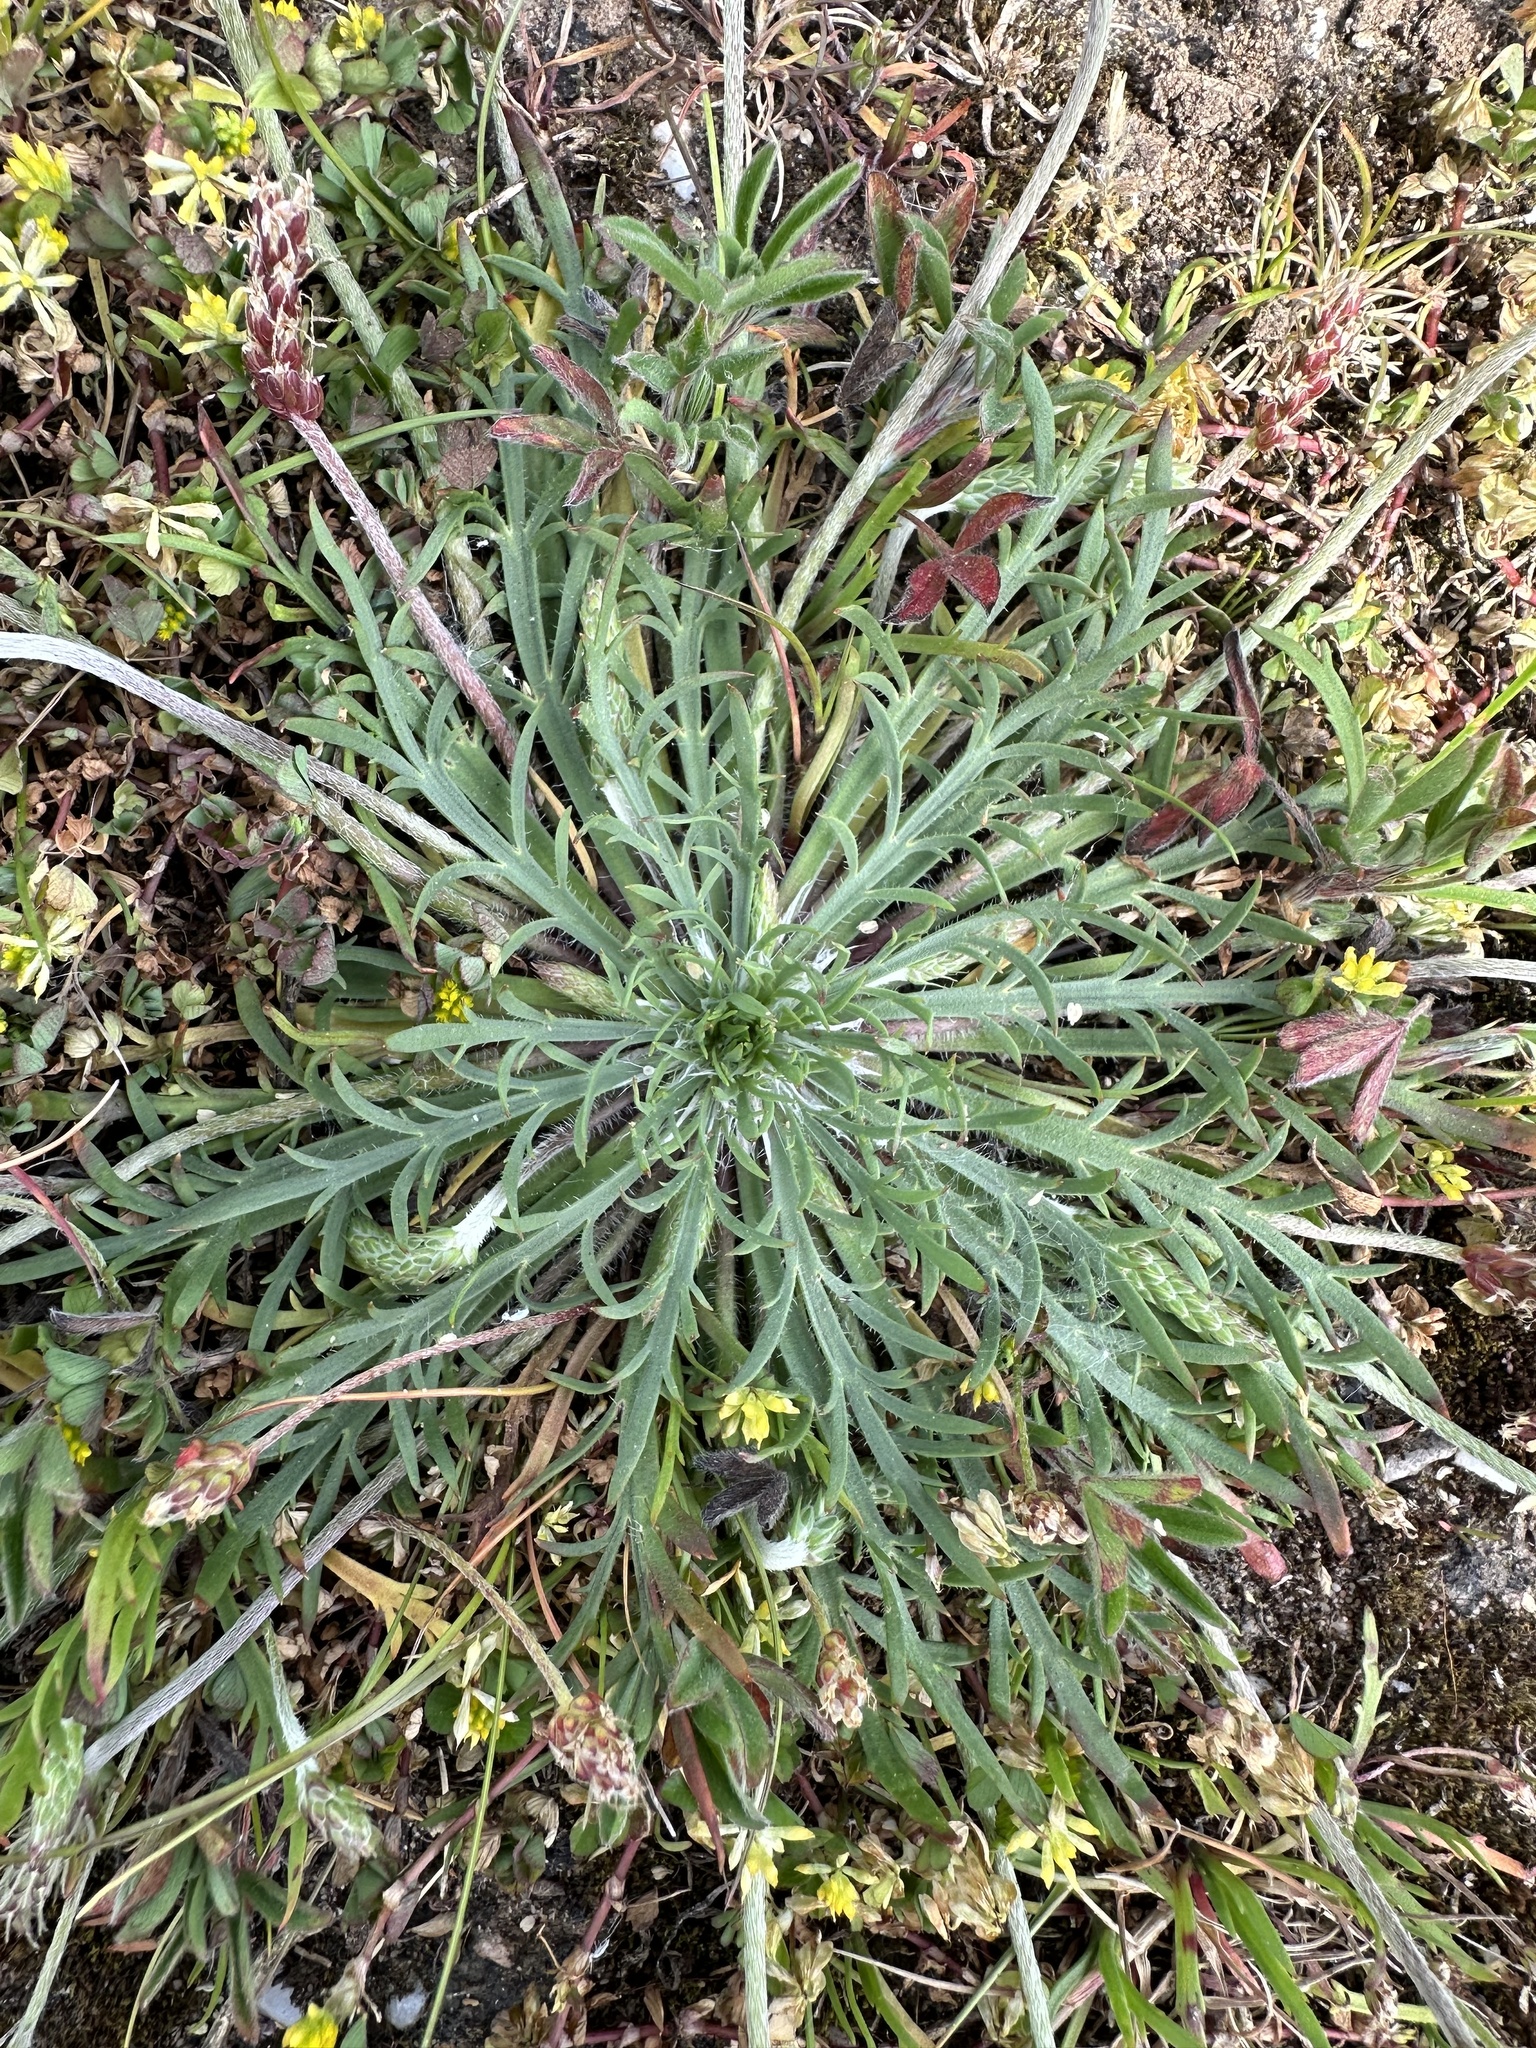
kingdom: Plantae
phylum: Tracheophyta
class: Magnoliopsida
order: Lamiales
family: Plantaginaceae
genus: Plantago
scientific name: Plantago coronopus
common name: Buck's-horn plantain
